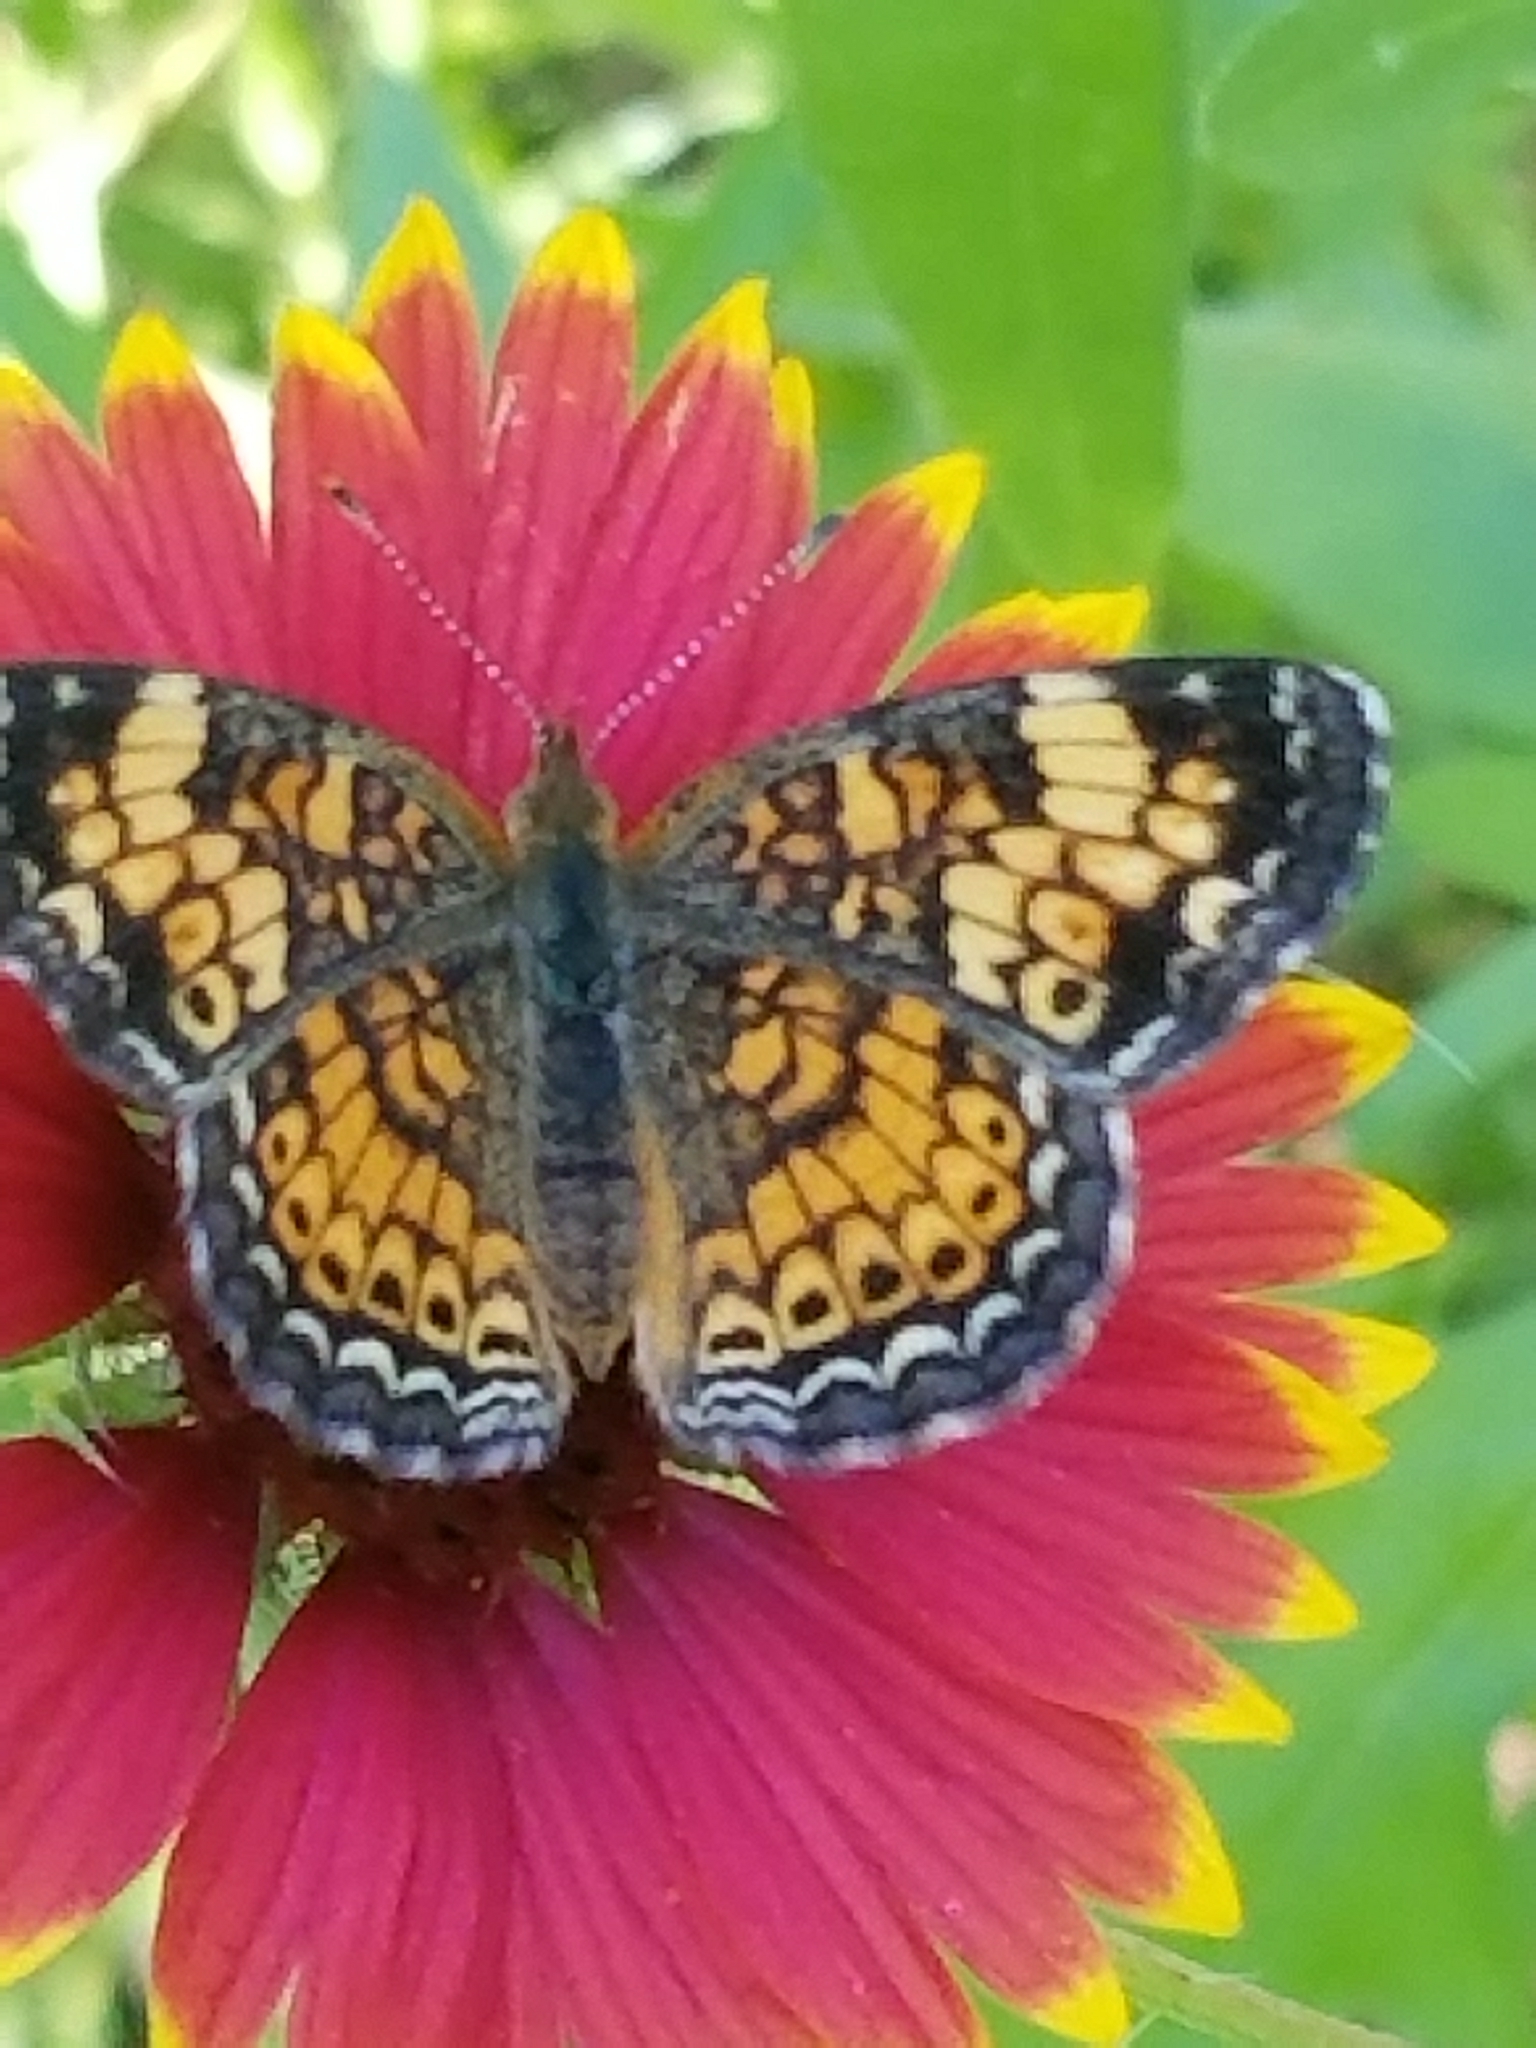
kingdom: Animalia
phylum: Arthropoda
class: Insecta
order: Lepidoptera
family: Nymphalidae
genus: Phyciodes
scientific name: Phyciodes tharos
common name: Pearl crescent
